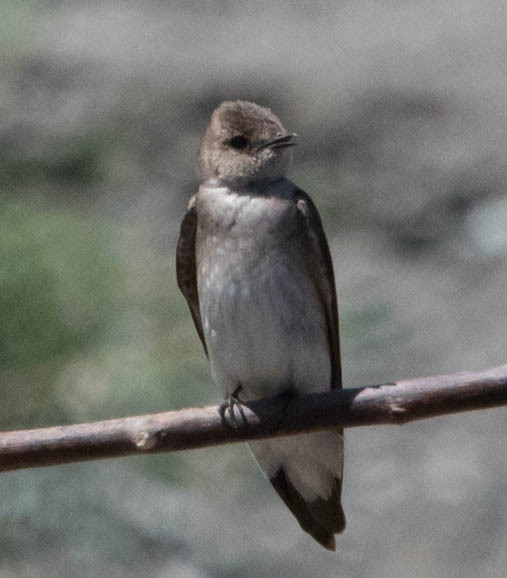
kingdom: Animalia
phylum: Chordata
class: Aves
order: Passeriformes
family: Hirundinidae
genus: Stelgidopteryx
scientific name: Stelgidopteryx serripennis
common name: Northern rough-winged swallow
